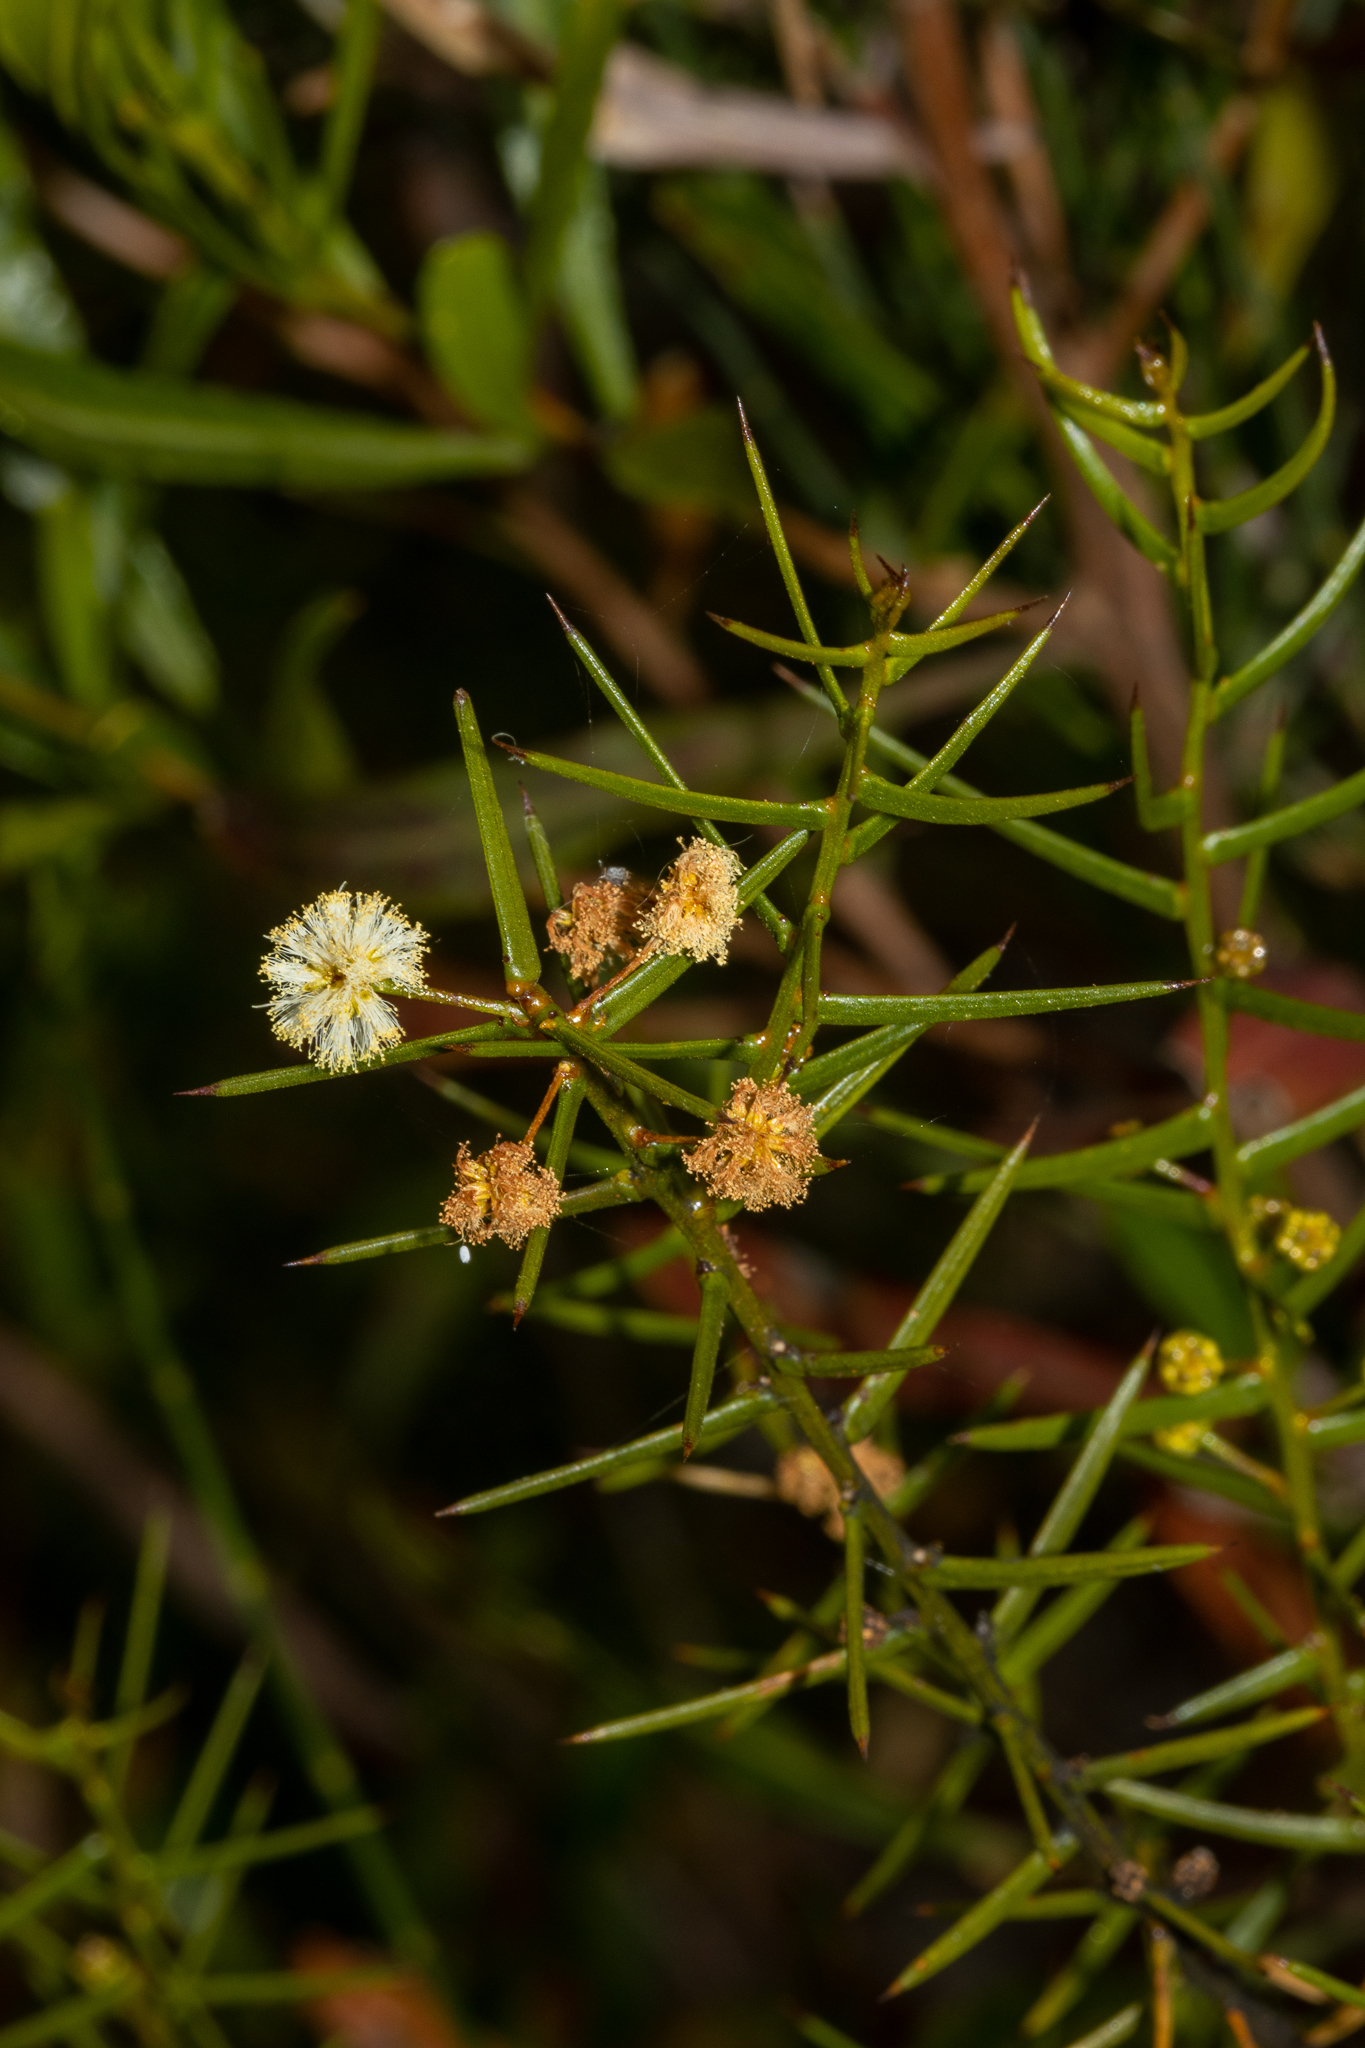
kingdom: Plantae
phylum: Tracheophyta
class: Magnoliopsida
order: Fabales
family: Fabaceae
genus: Acacia
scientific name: Acacia rupicola
